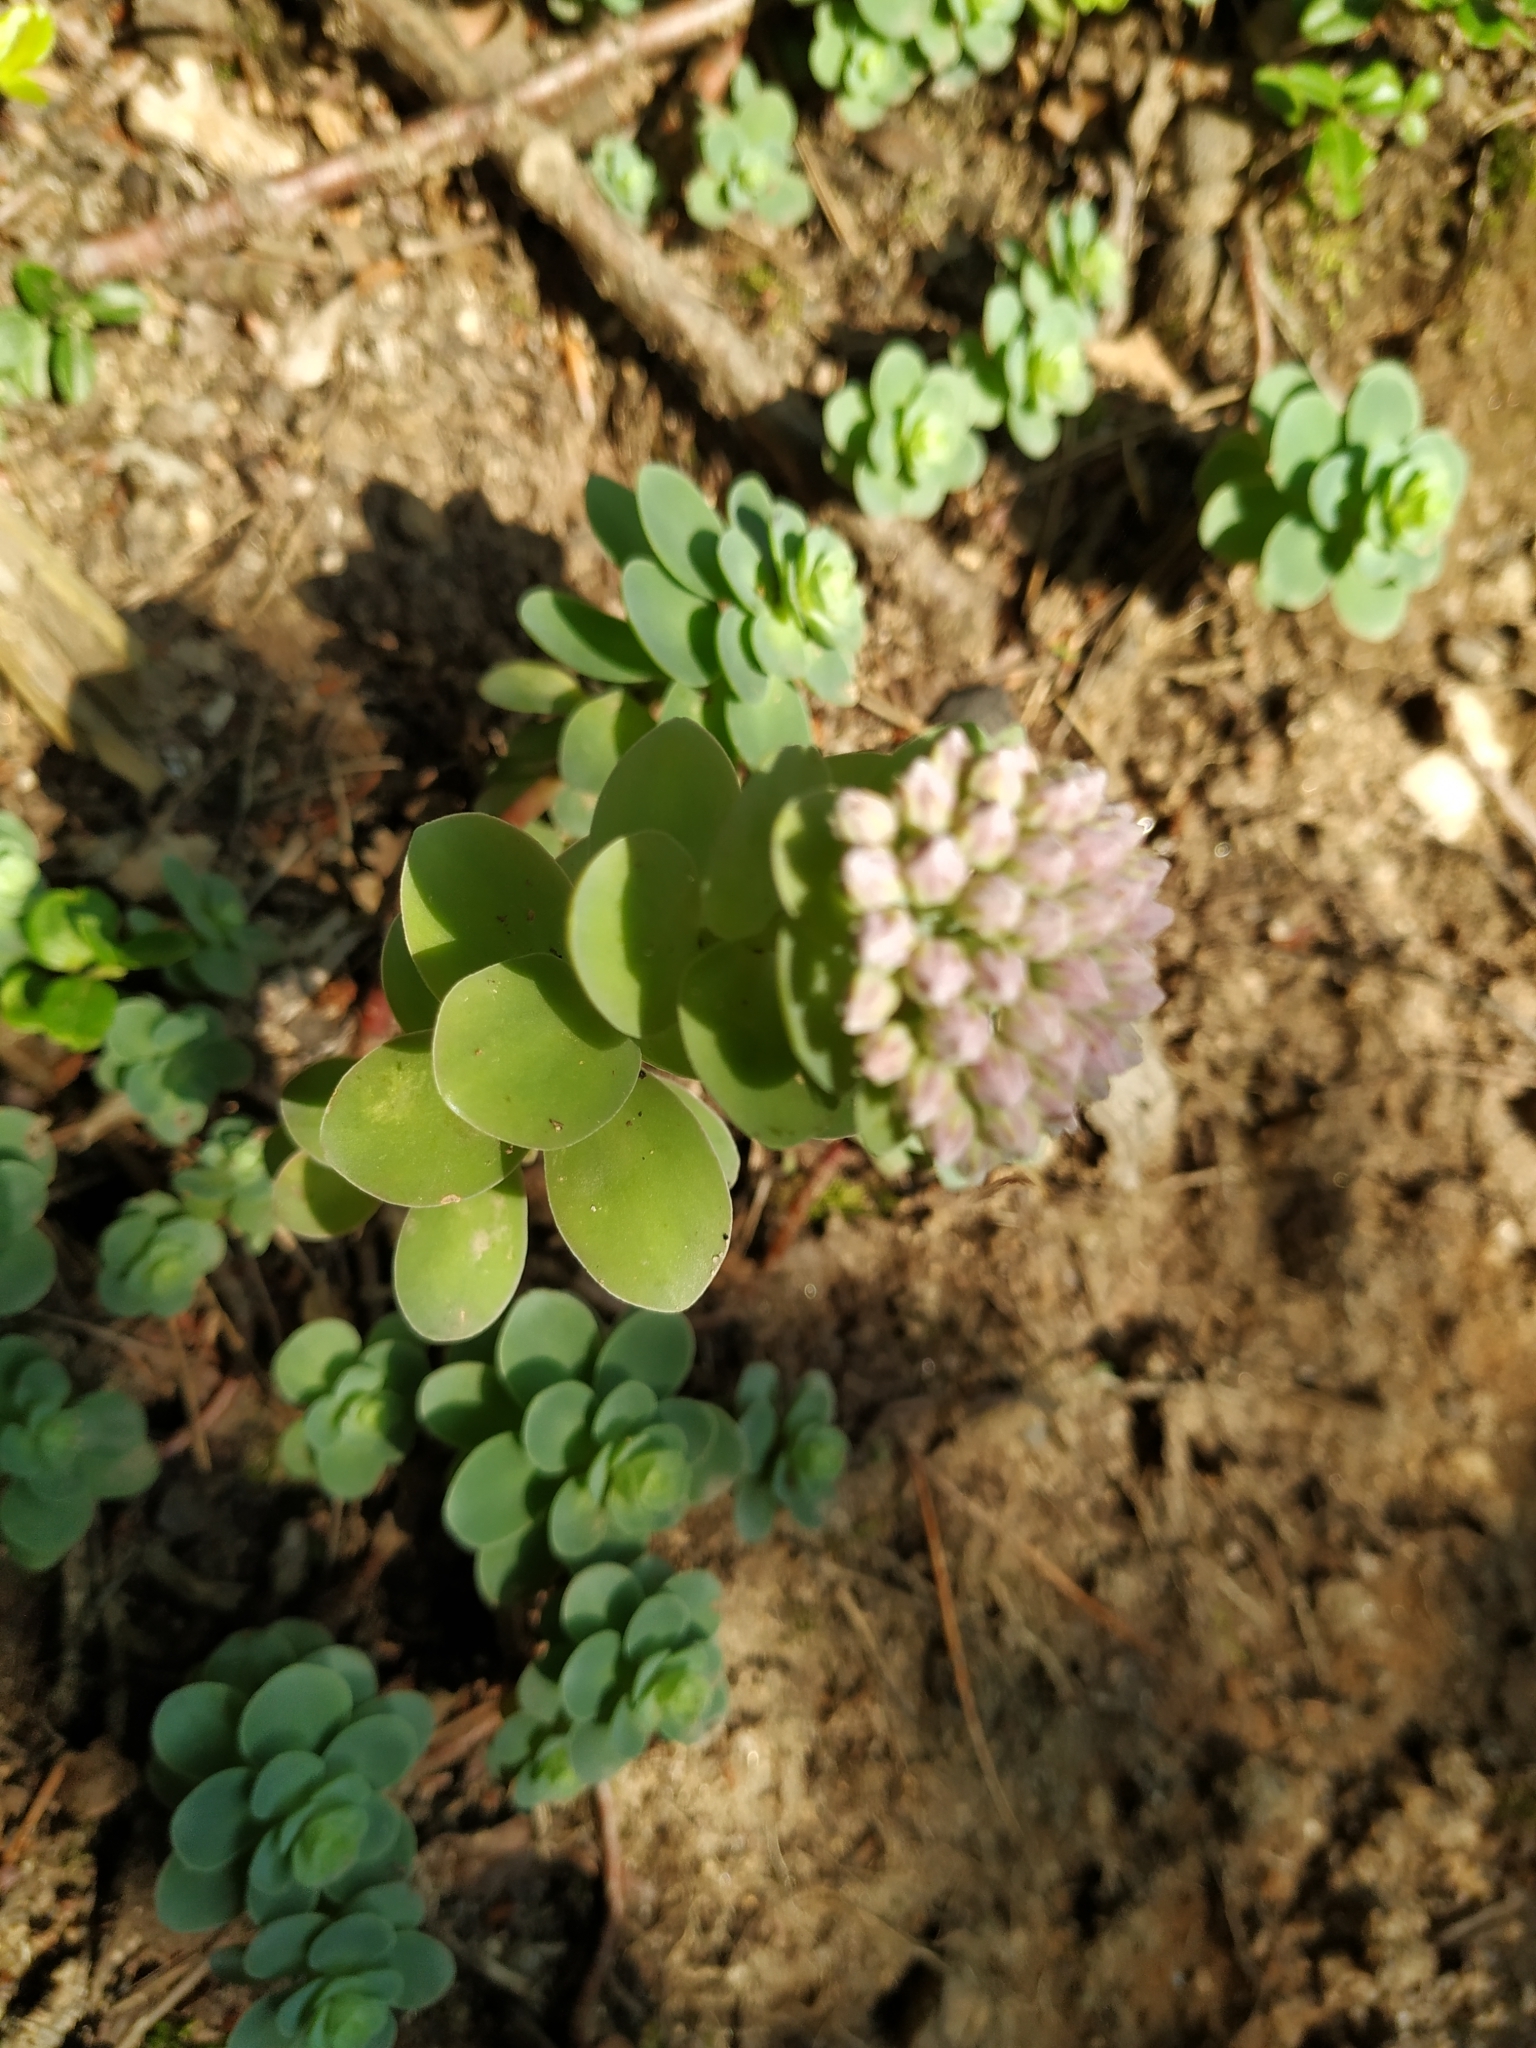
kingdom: Plantae
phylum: Tracheophyta
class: Magnoliopsida
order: Saxifragales
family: Crassulaceae
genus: Hylotelephium
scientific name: Hylotelephium anacampseros
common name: Love-restorer
